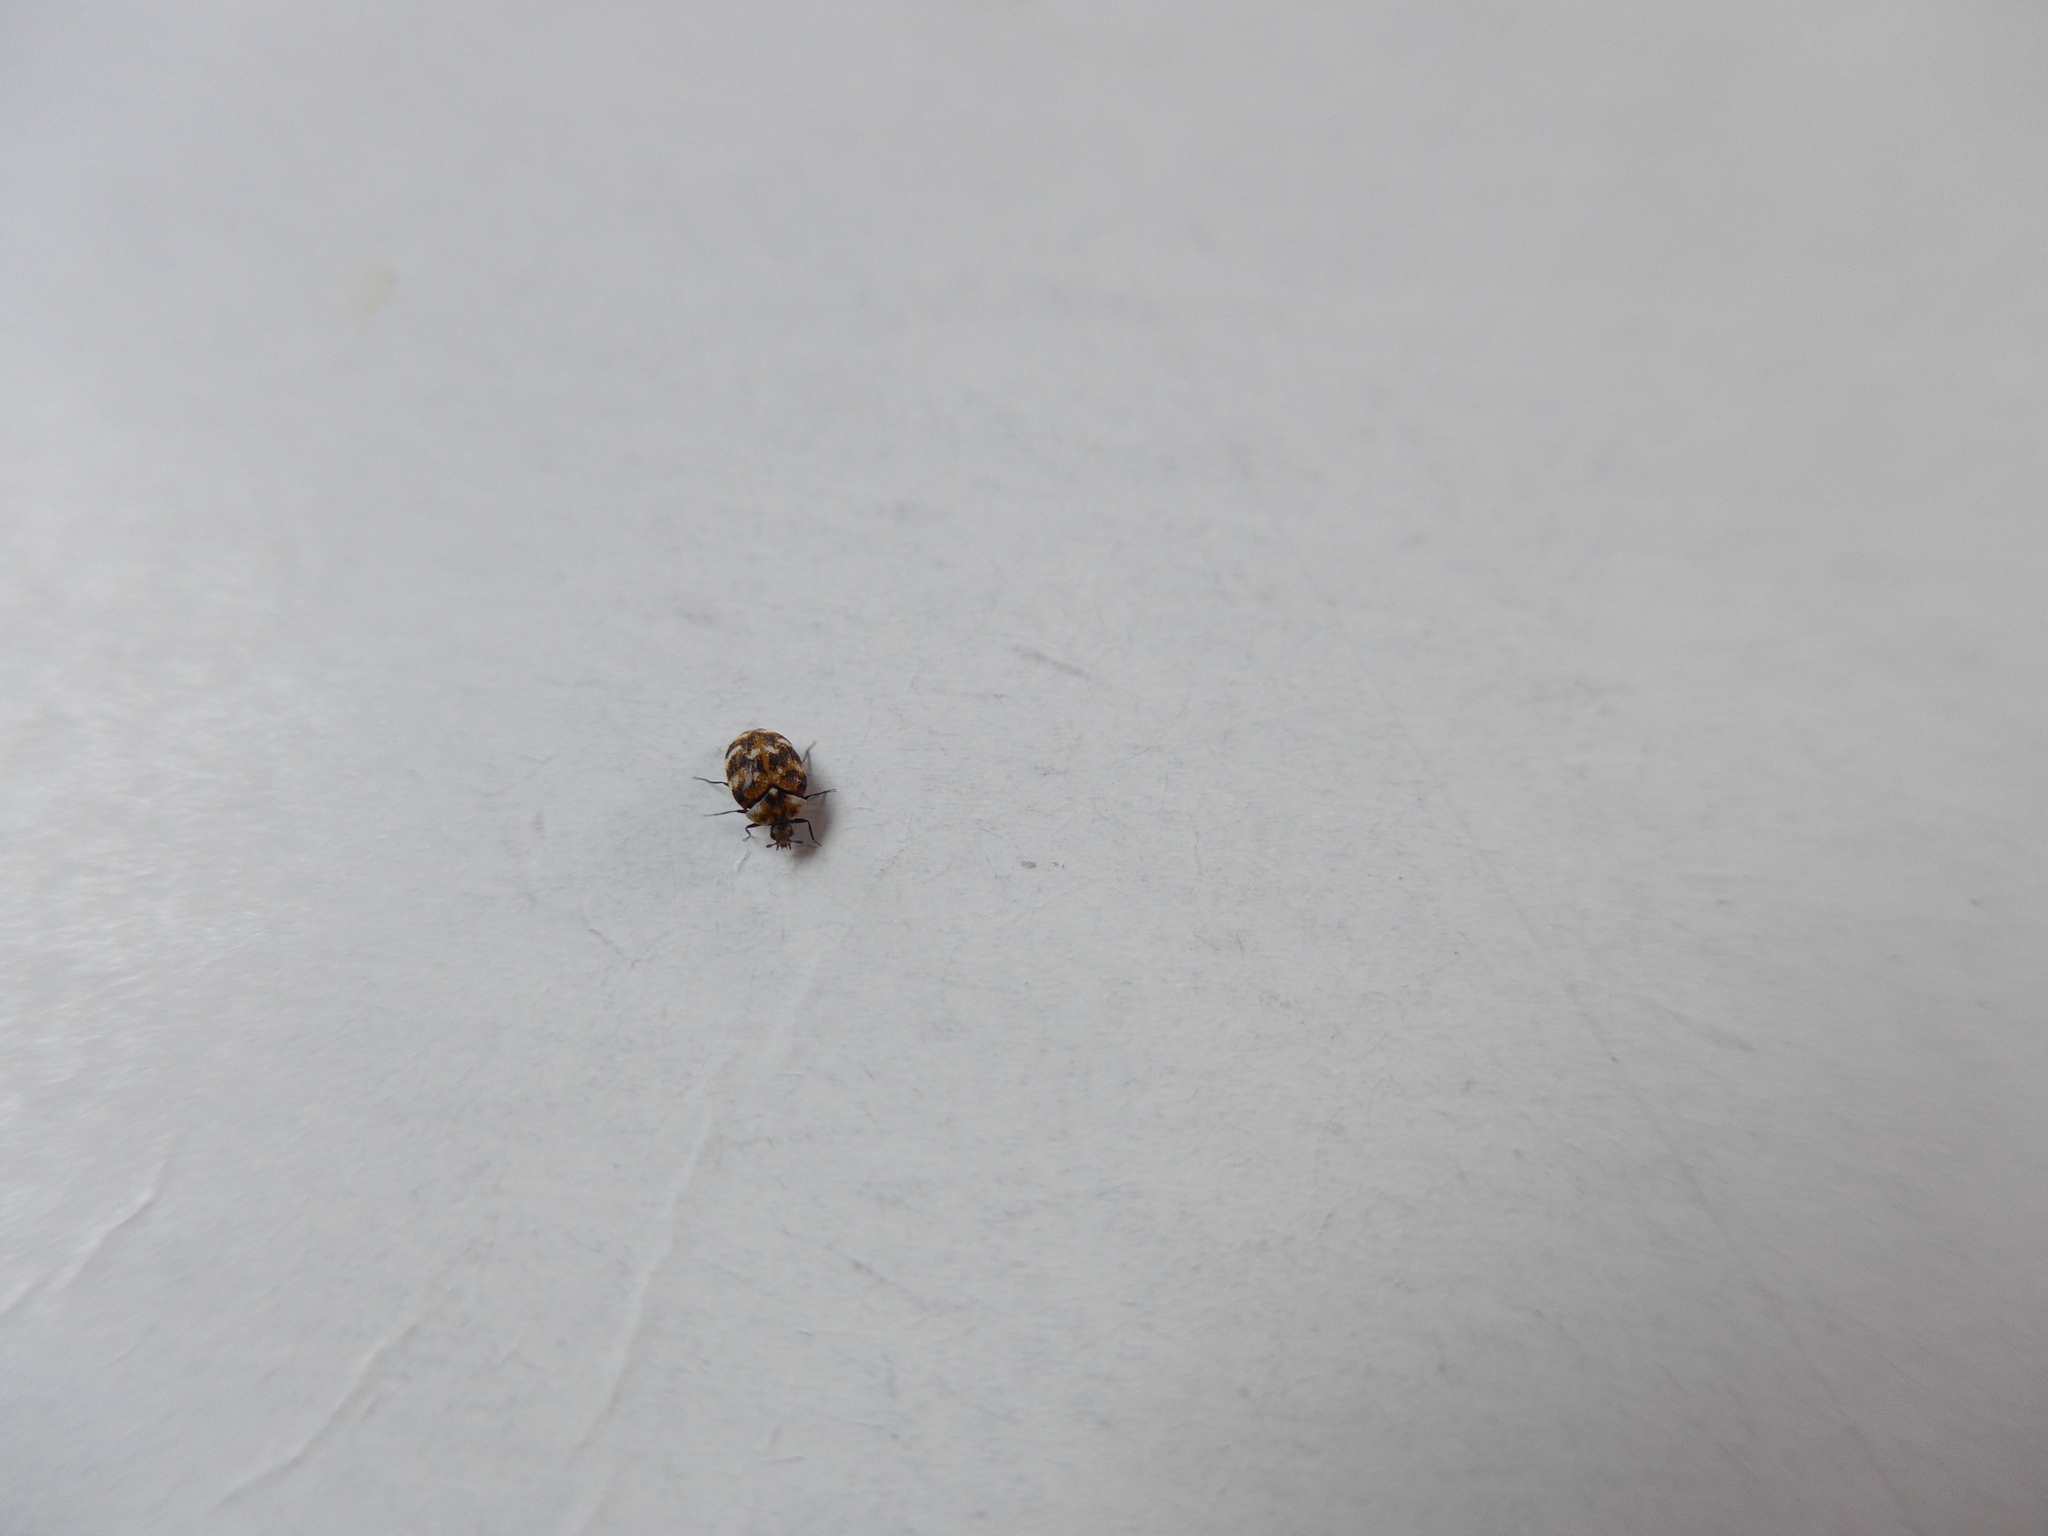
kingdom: Animalia
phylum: Arthropoda
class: Insecta
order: Coleoptera
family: Dermestidae
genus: Anthrenus
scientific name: Anthrenus verbasci
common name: Varied carpet beetle
